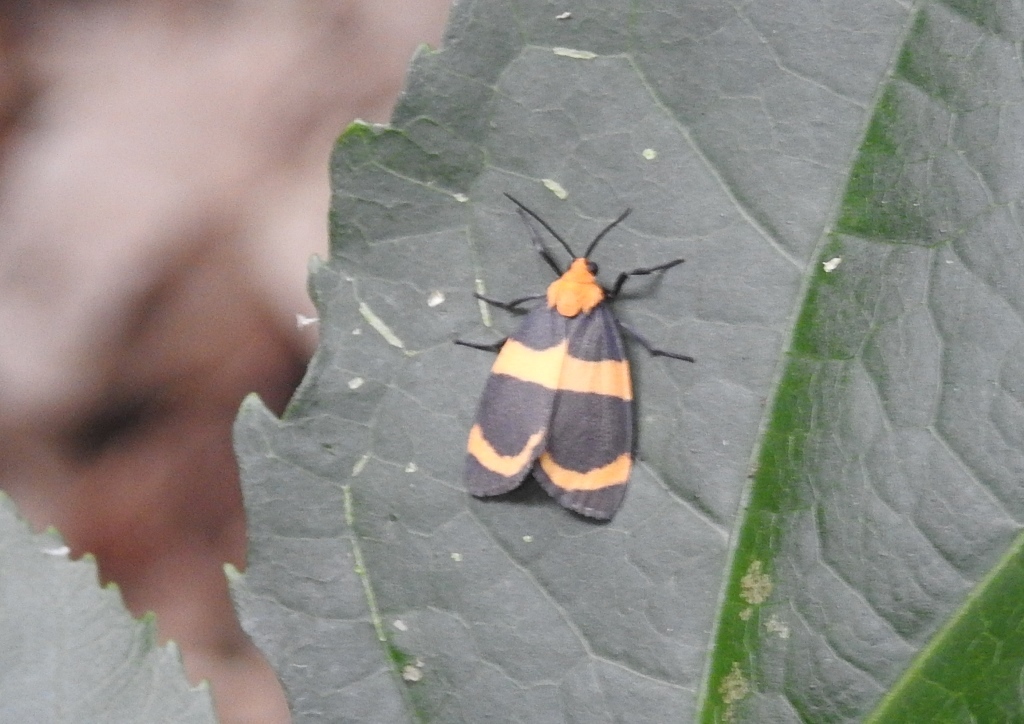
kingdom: Animalia
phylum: Arthropoda
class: Insecta
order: Lepidoptera
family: Erebidae
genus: Eudesmia
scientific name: Eudesmia menea
